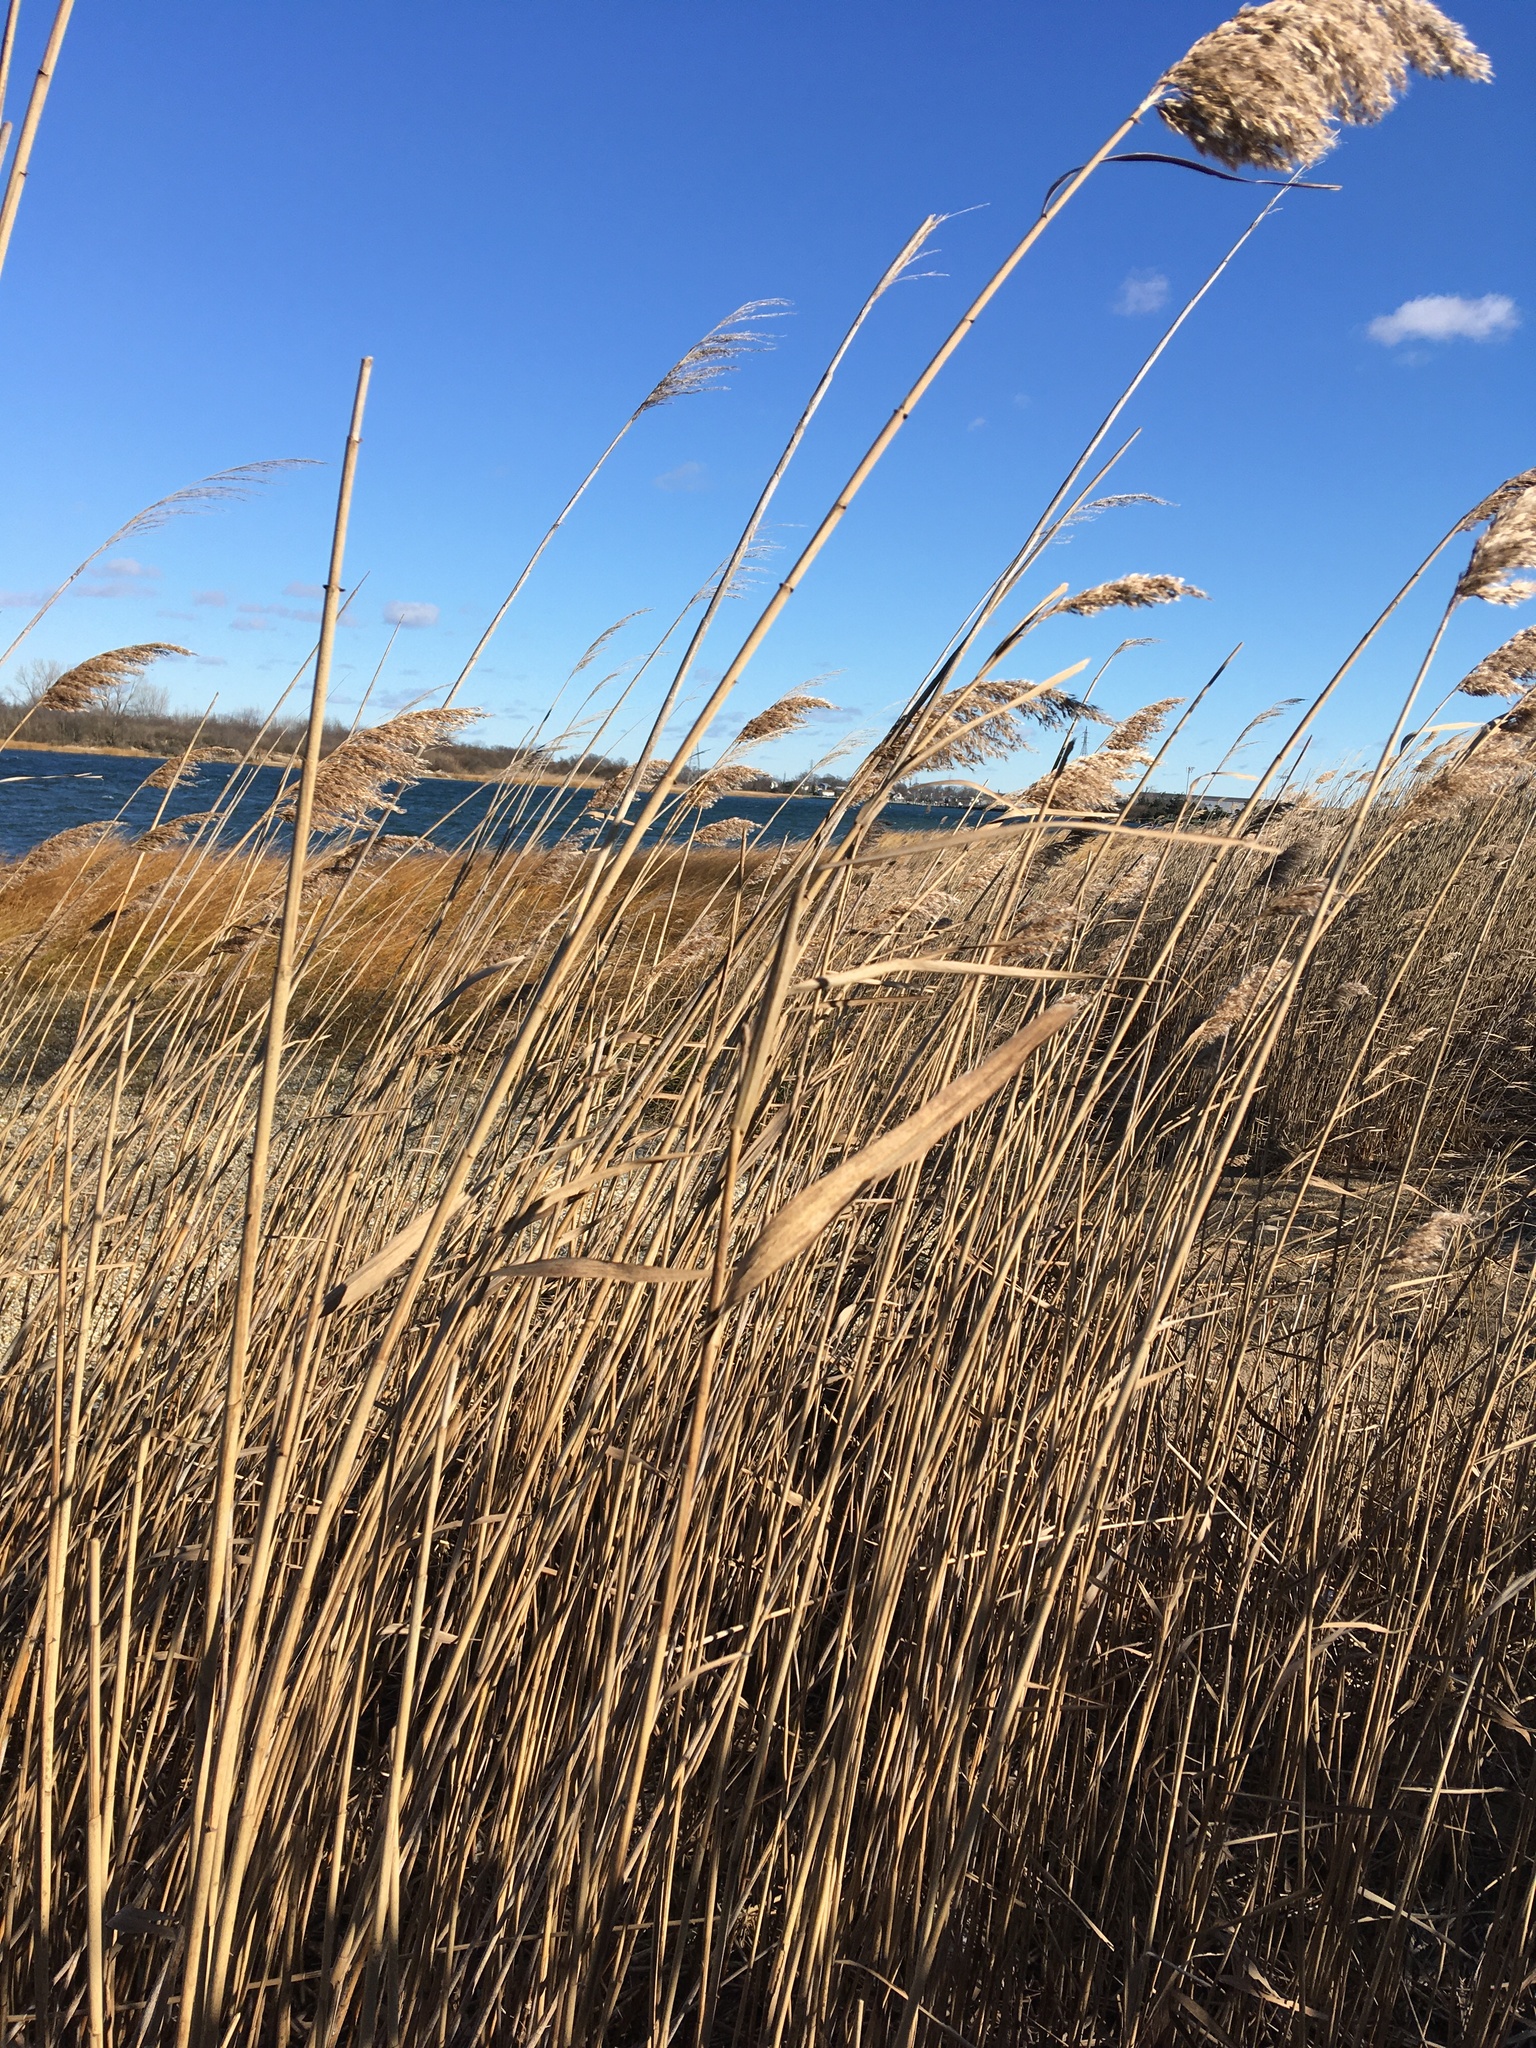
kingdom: Plantae
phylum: Tracheophyta
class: Liliopsida
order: Poales
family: Poaceae
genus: Phragmites
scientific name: Phragmites australis
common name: Common reed
